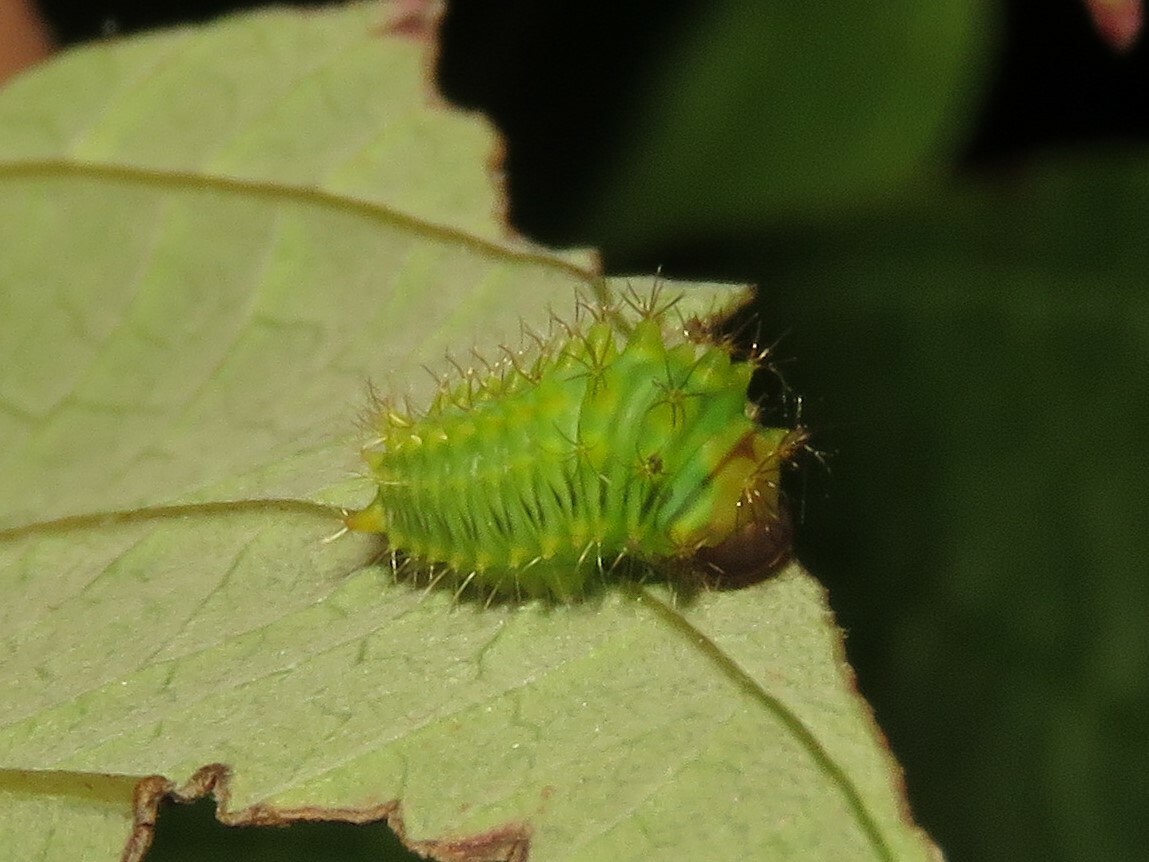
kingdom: Animalia
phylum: Arthropoda
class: Insecta
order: Lepidoptera
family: Saturniidae
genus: Antheraea
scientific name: Antheraea polyphemus
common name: Polyphemus moth
